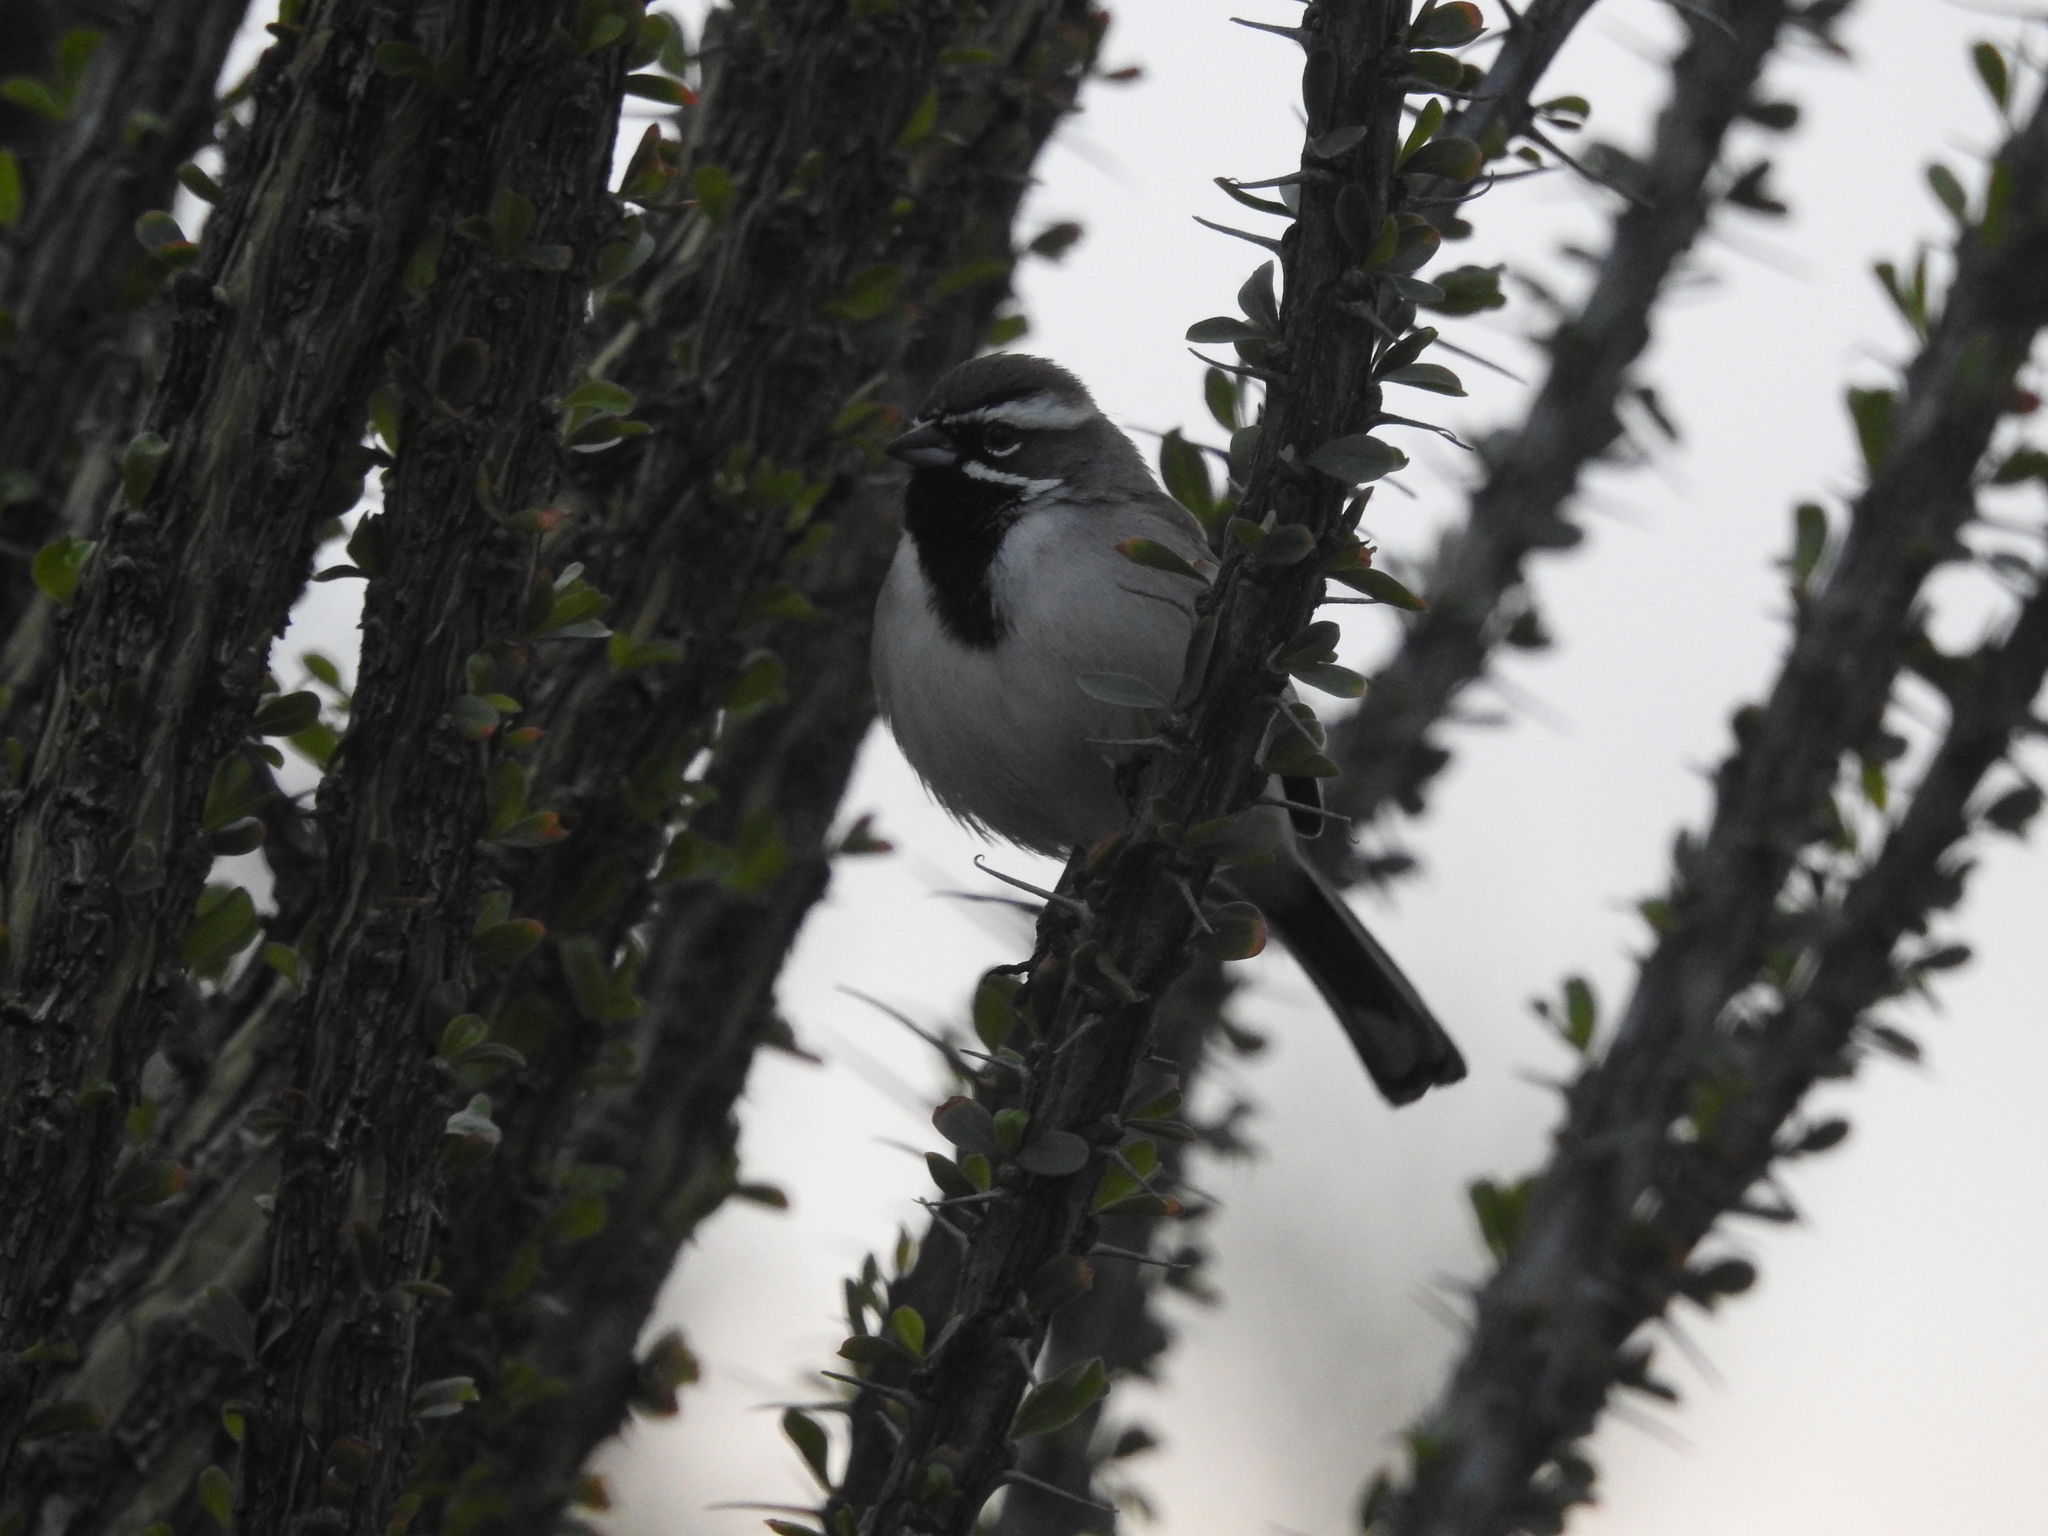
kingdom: Animalia
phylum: Chordata
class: Aves
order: Passeriformes
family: Passerellidae
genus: Amphispiza
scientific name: Amphispiza bilineata
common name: Black-throated sparrow
